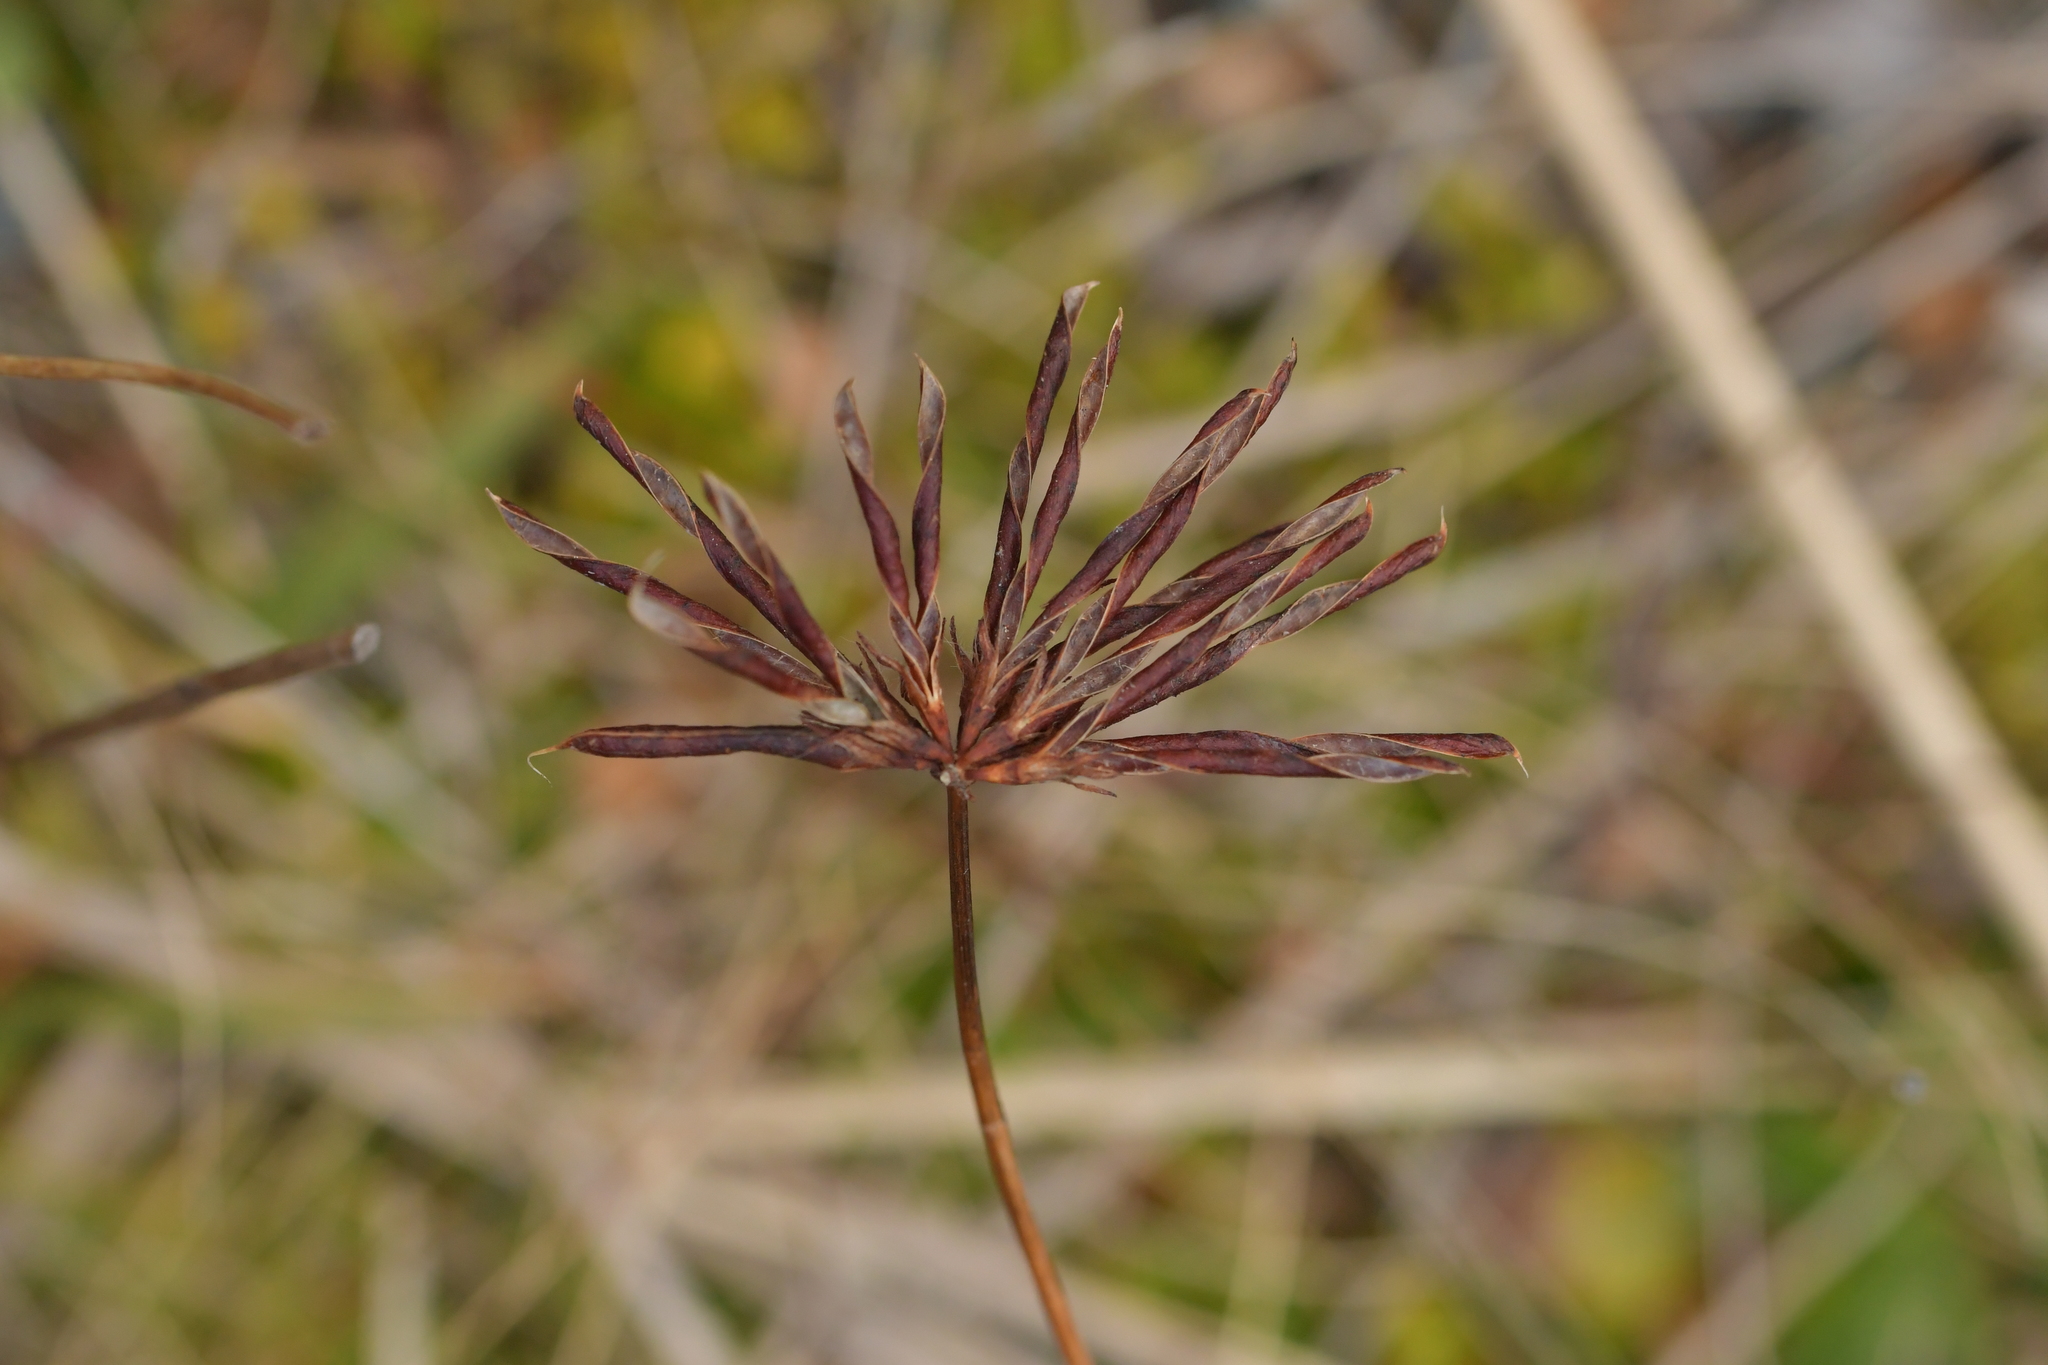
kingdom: Plantae
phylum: Tracheophyta
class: Magnoliopsida
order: Fabales
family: Fabaceae
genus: Lotus
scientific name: Lotus pedunculatus
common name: Greater birdsfoot-trefoil
